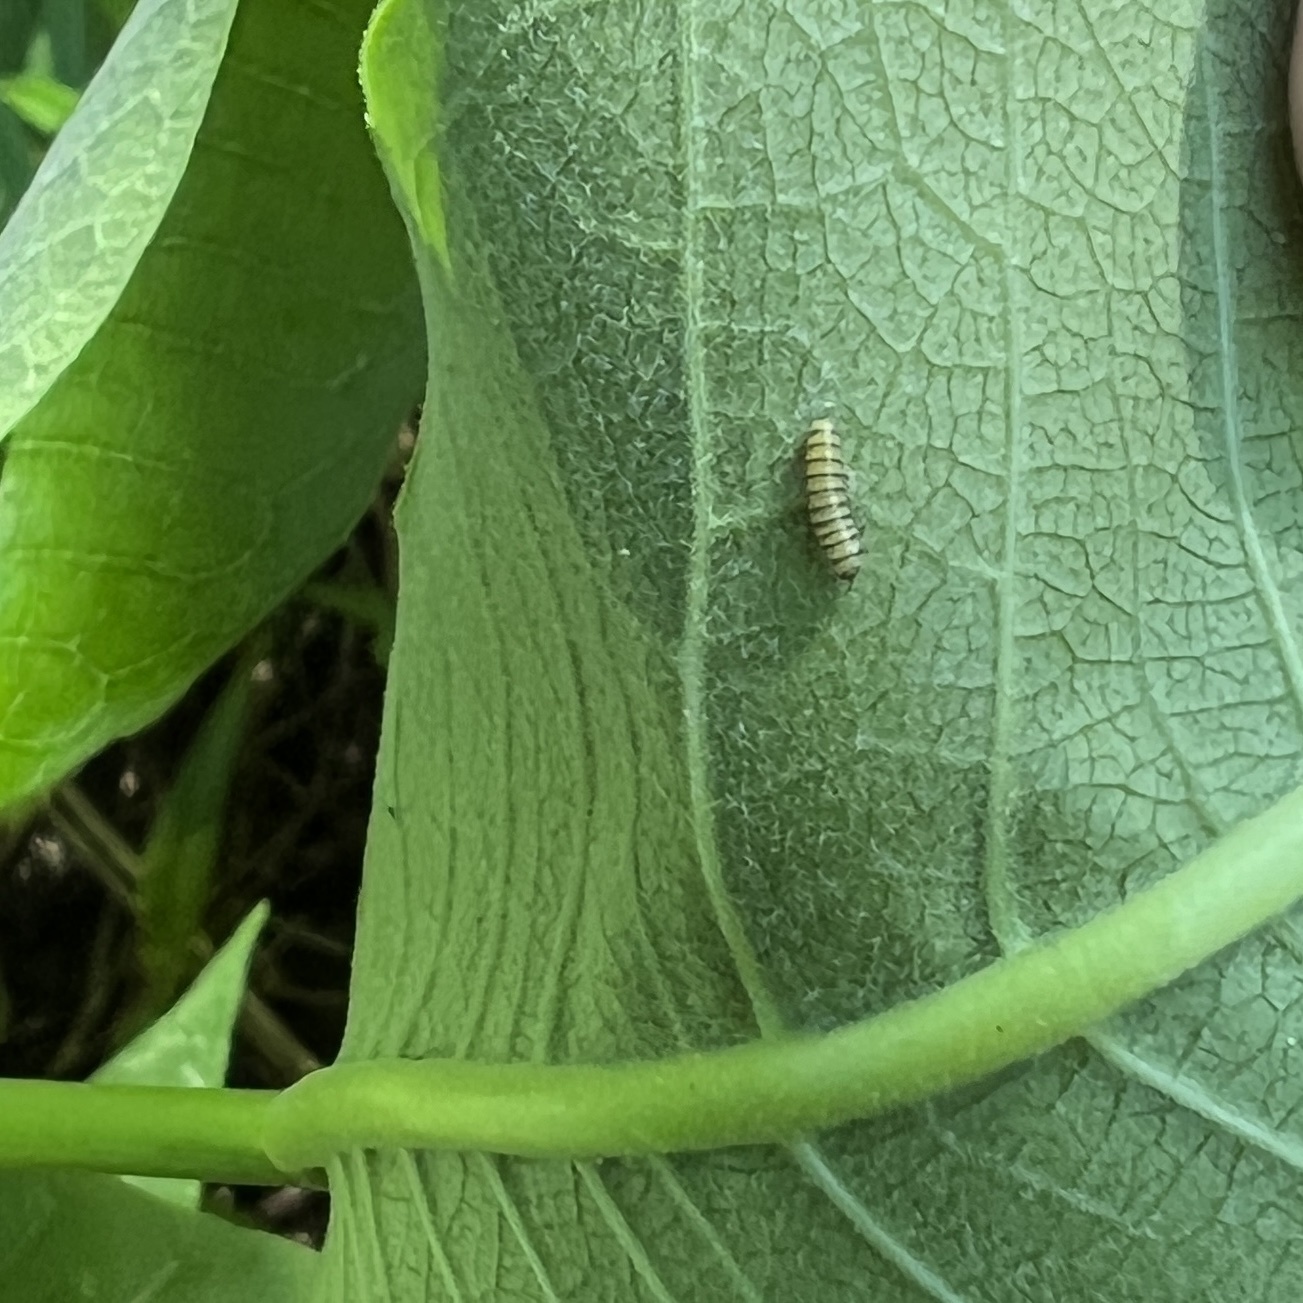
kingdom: Animalia
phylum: Arthropoda
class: Insecta
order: Lepidoptera
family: Nymphalidae
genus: Danaus
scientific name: Danaus plexippus
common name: Monarch
